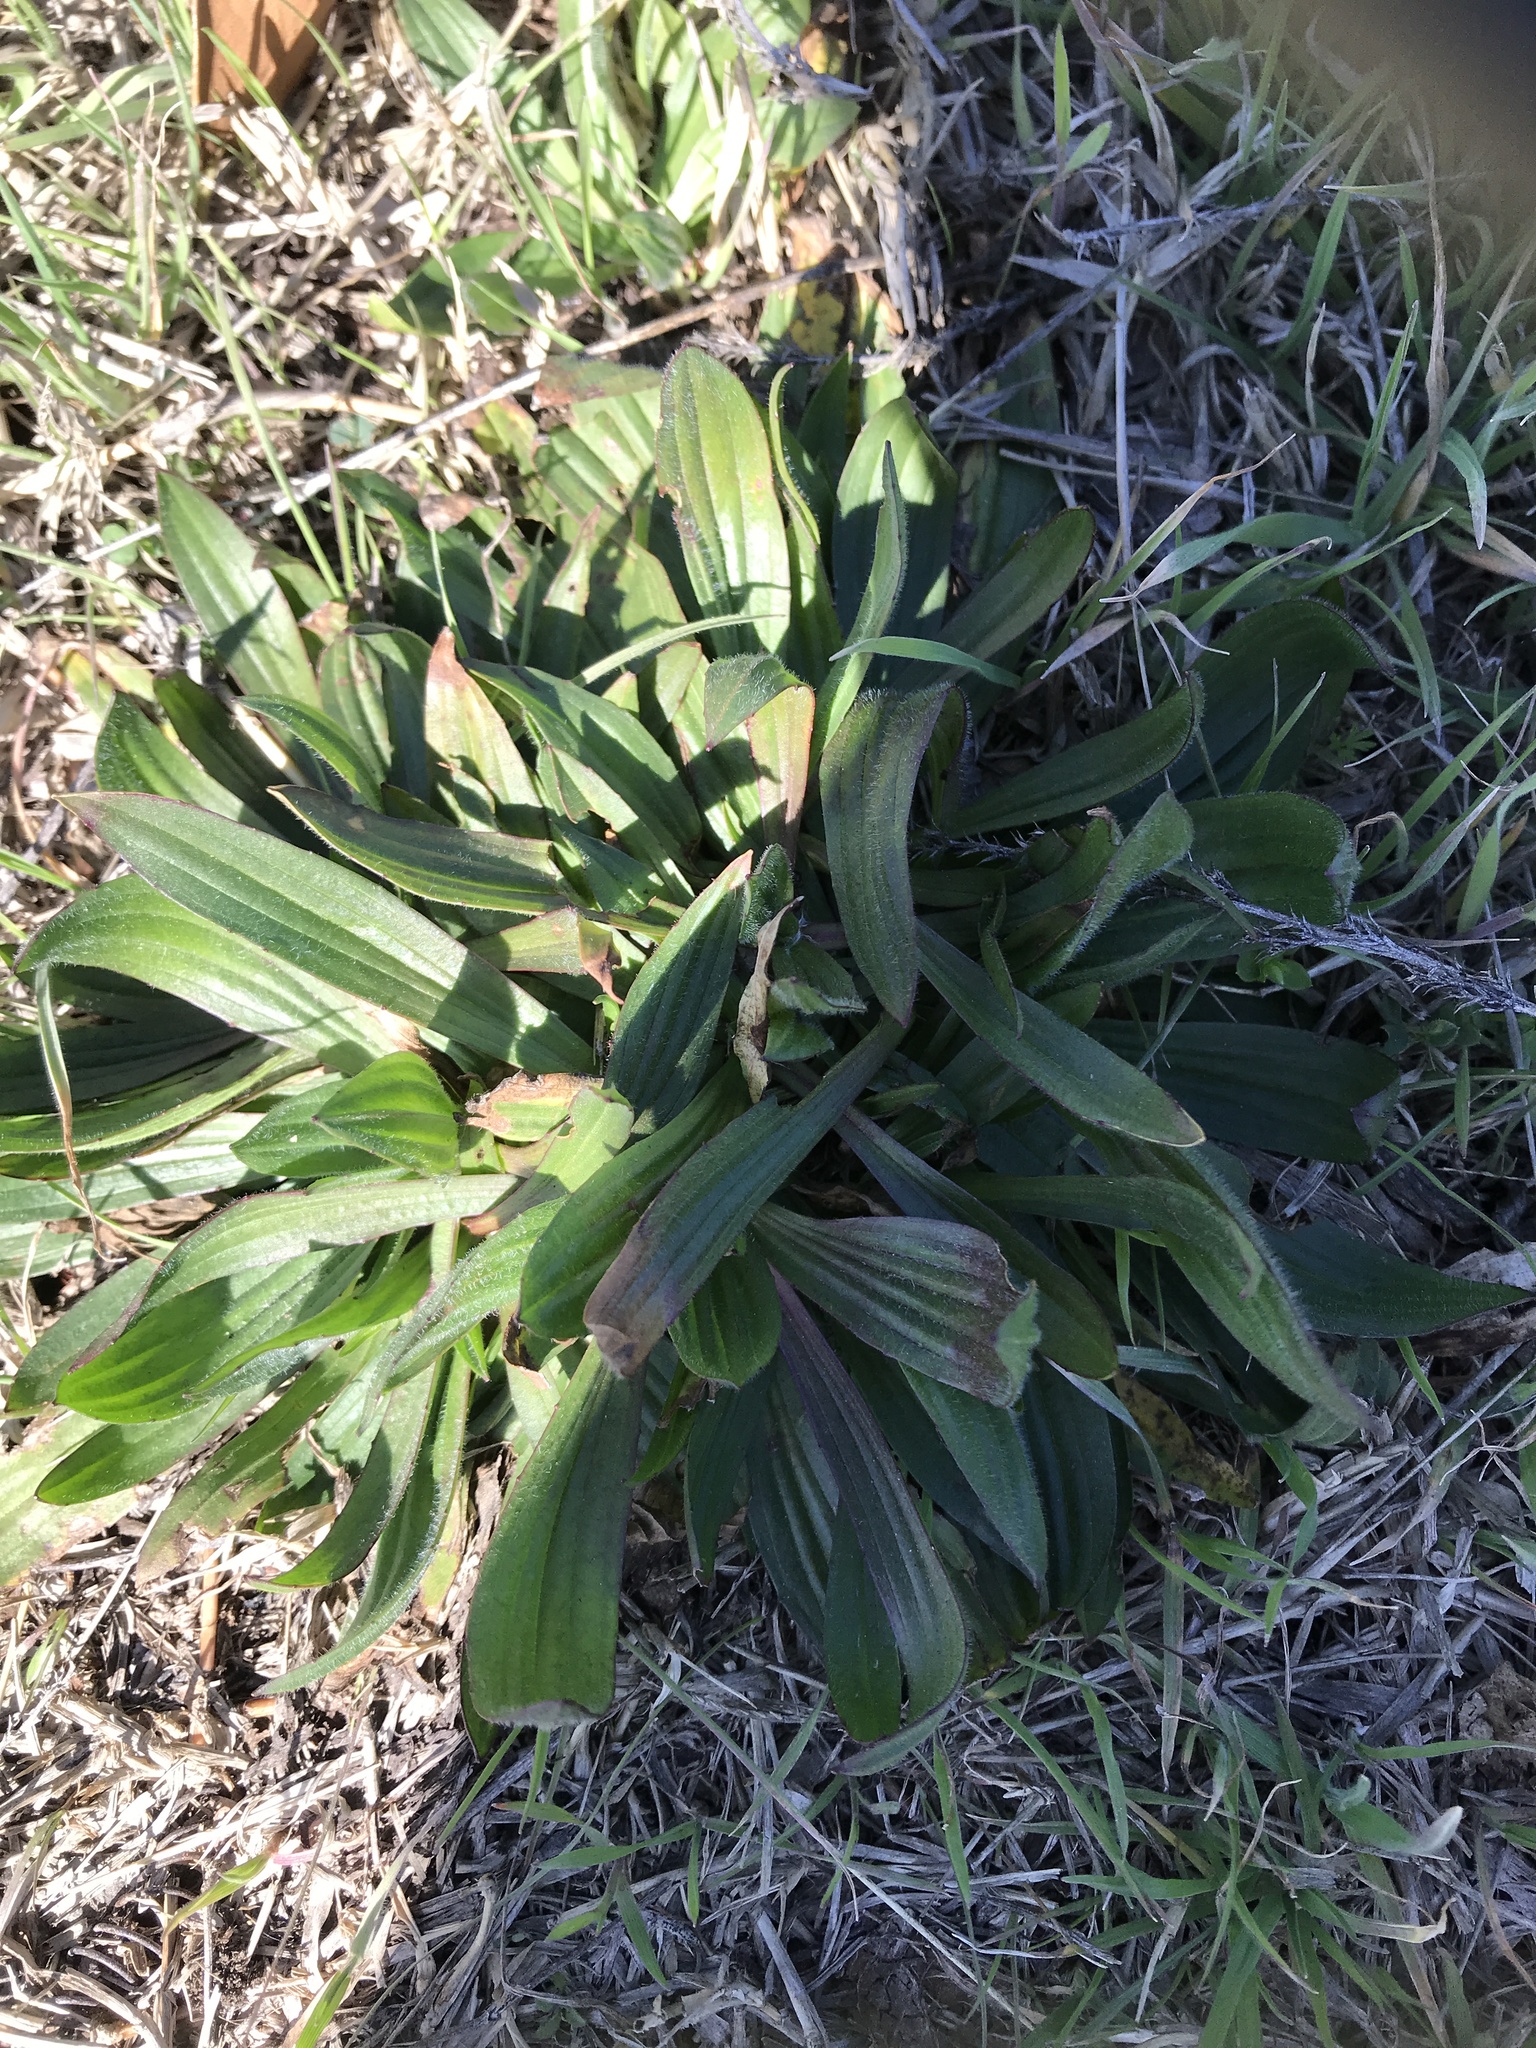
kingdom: Plantae
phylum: Tracheophyta
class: Magnoliopsida
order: Lamiales
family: Plantaginaceae
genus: Plantago
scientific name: Plantago lanceolata
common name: Ribwort plantain
